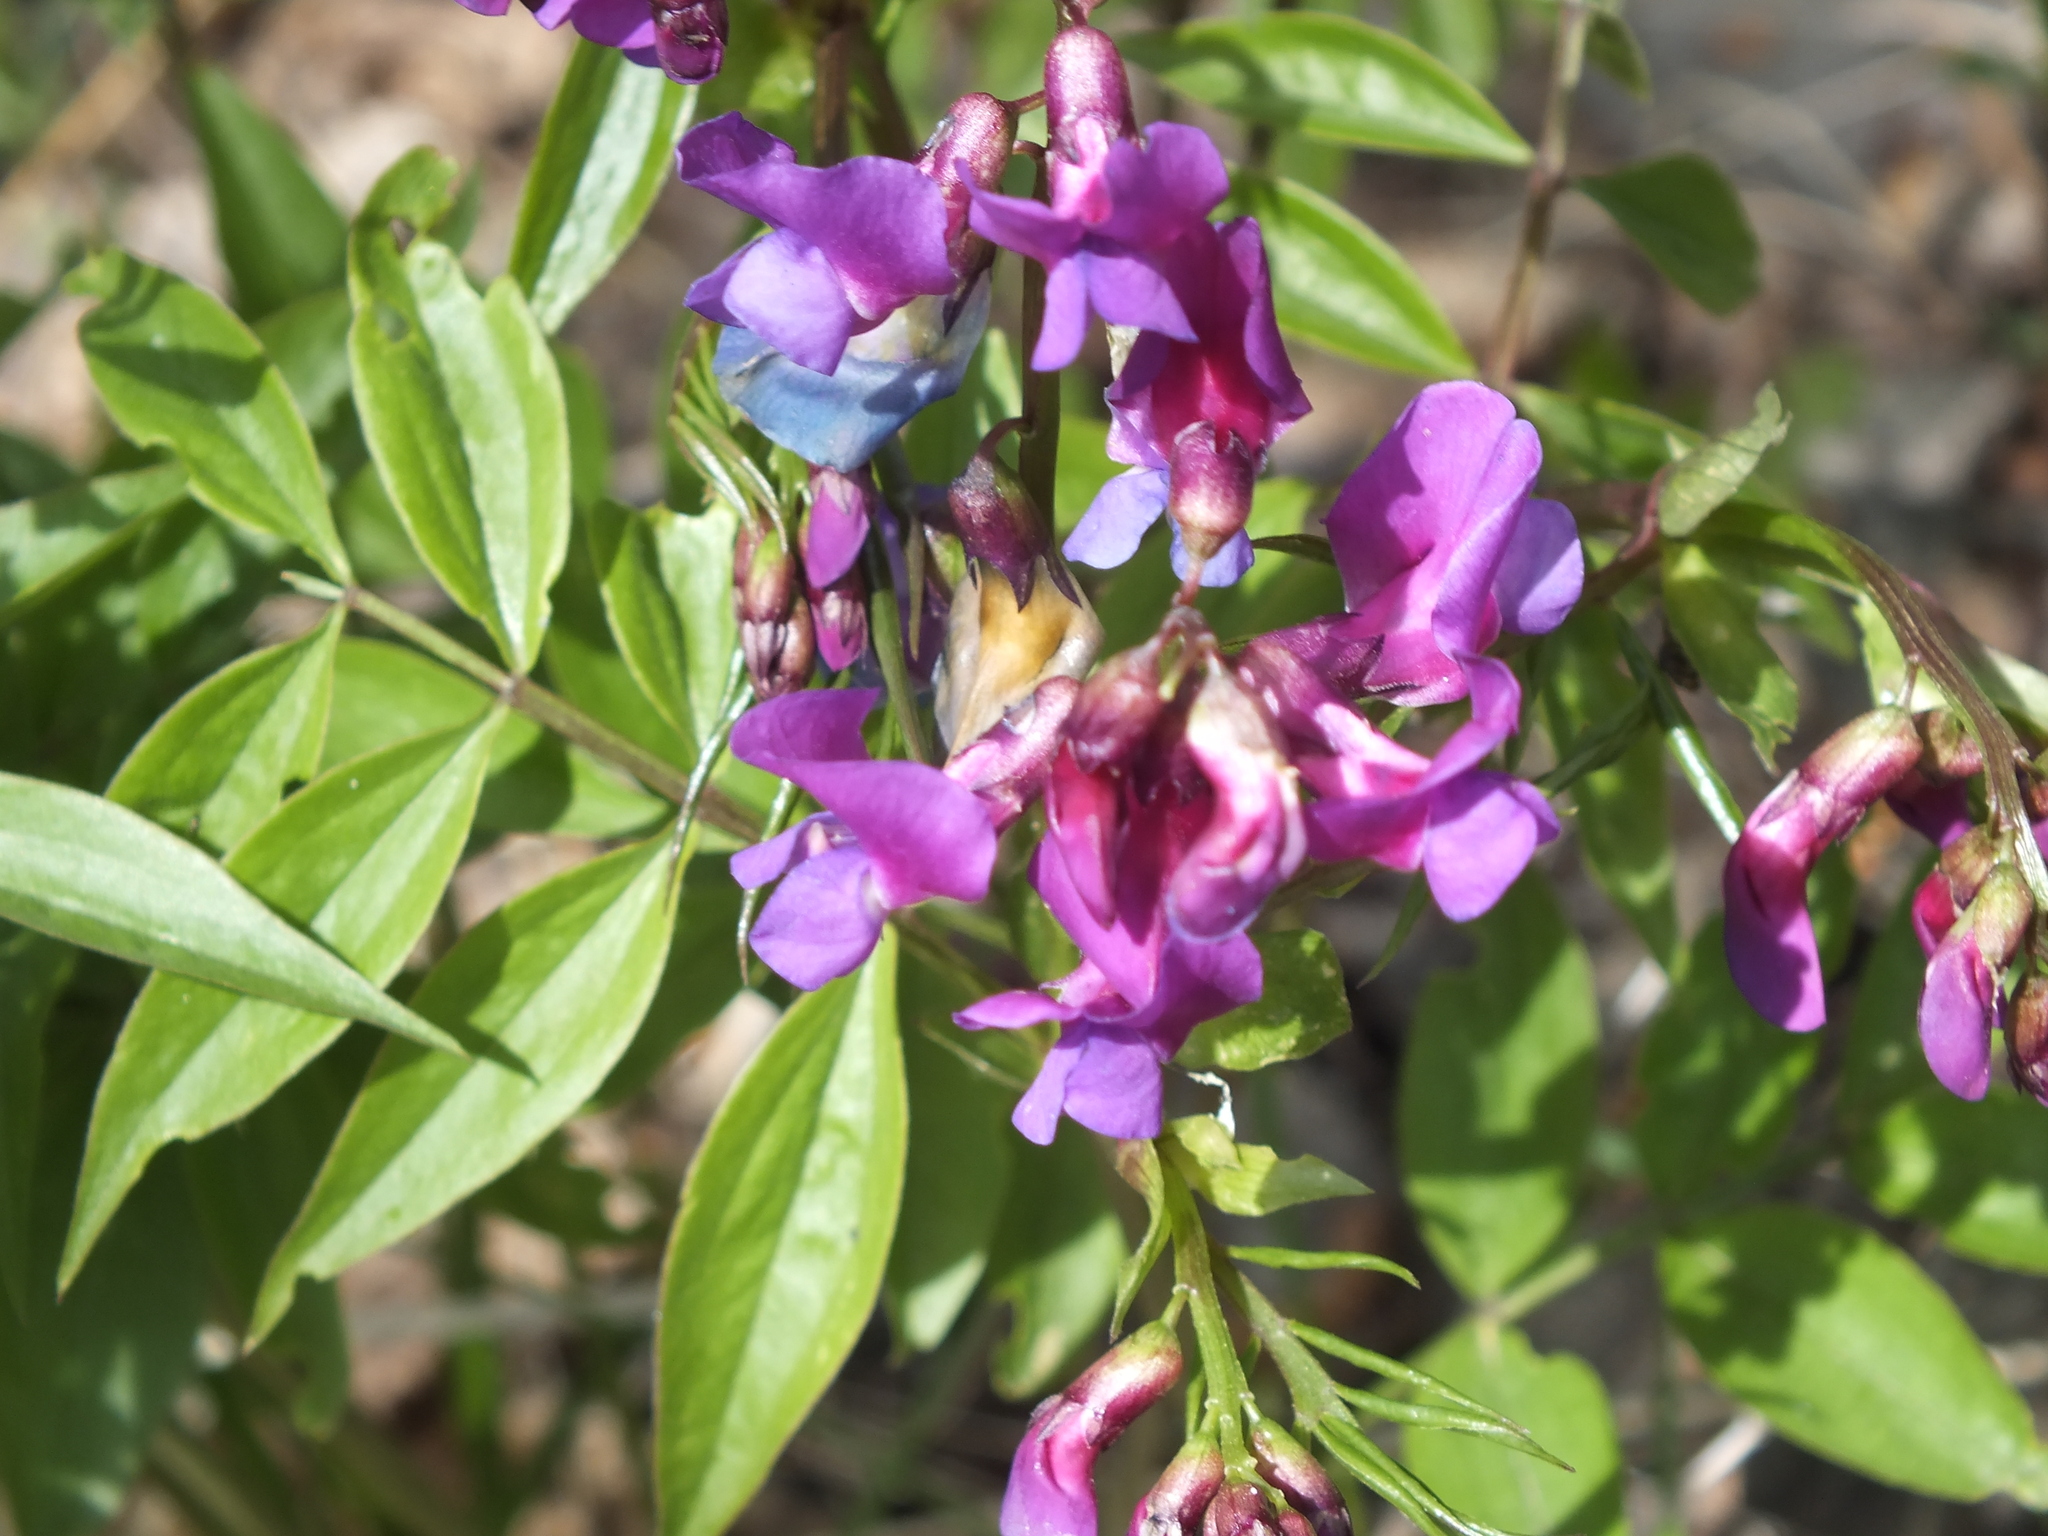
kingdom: Plantae
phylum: Tracheophyta
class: Magnoliopsida
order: Fabales
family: Fabaceae
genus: Lathyrus
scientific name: Lathyrus vernus
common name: Spring pea
